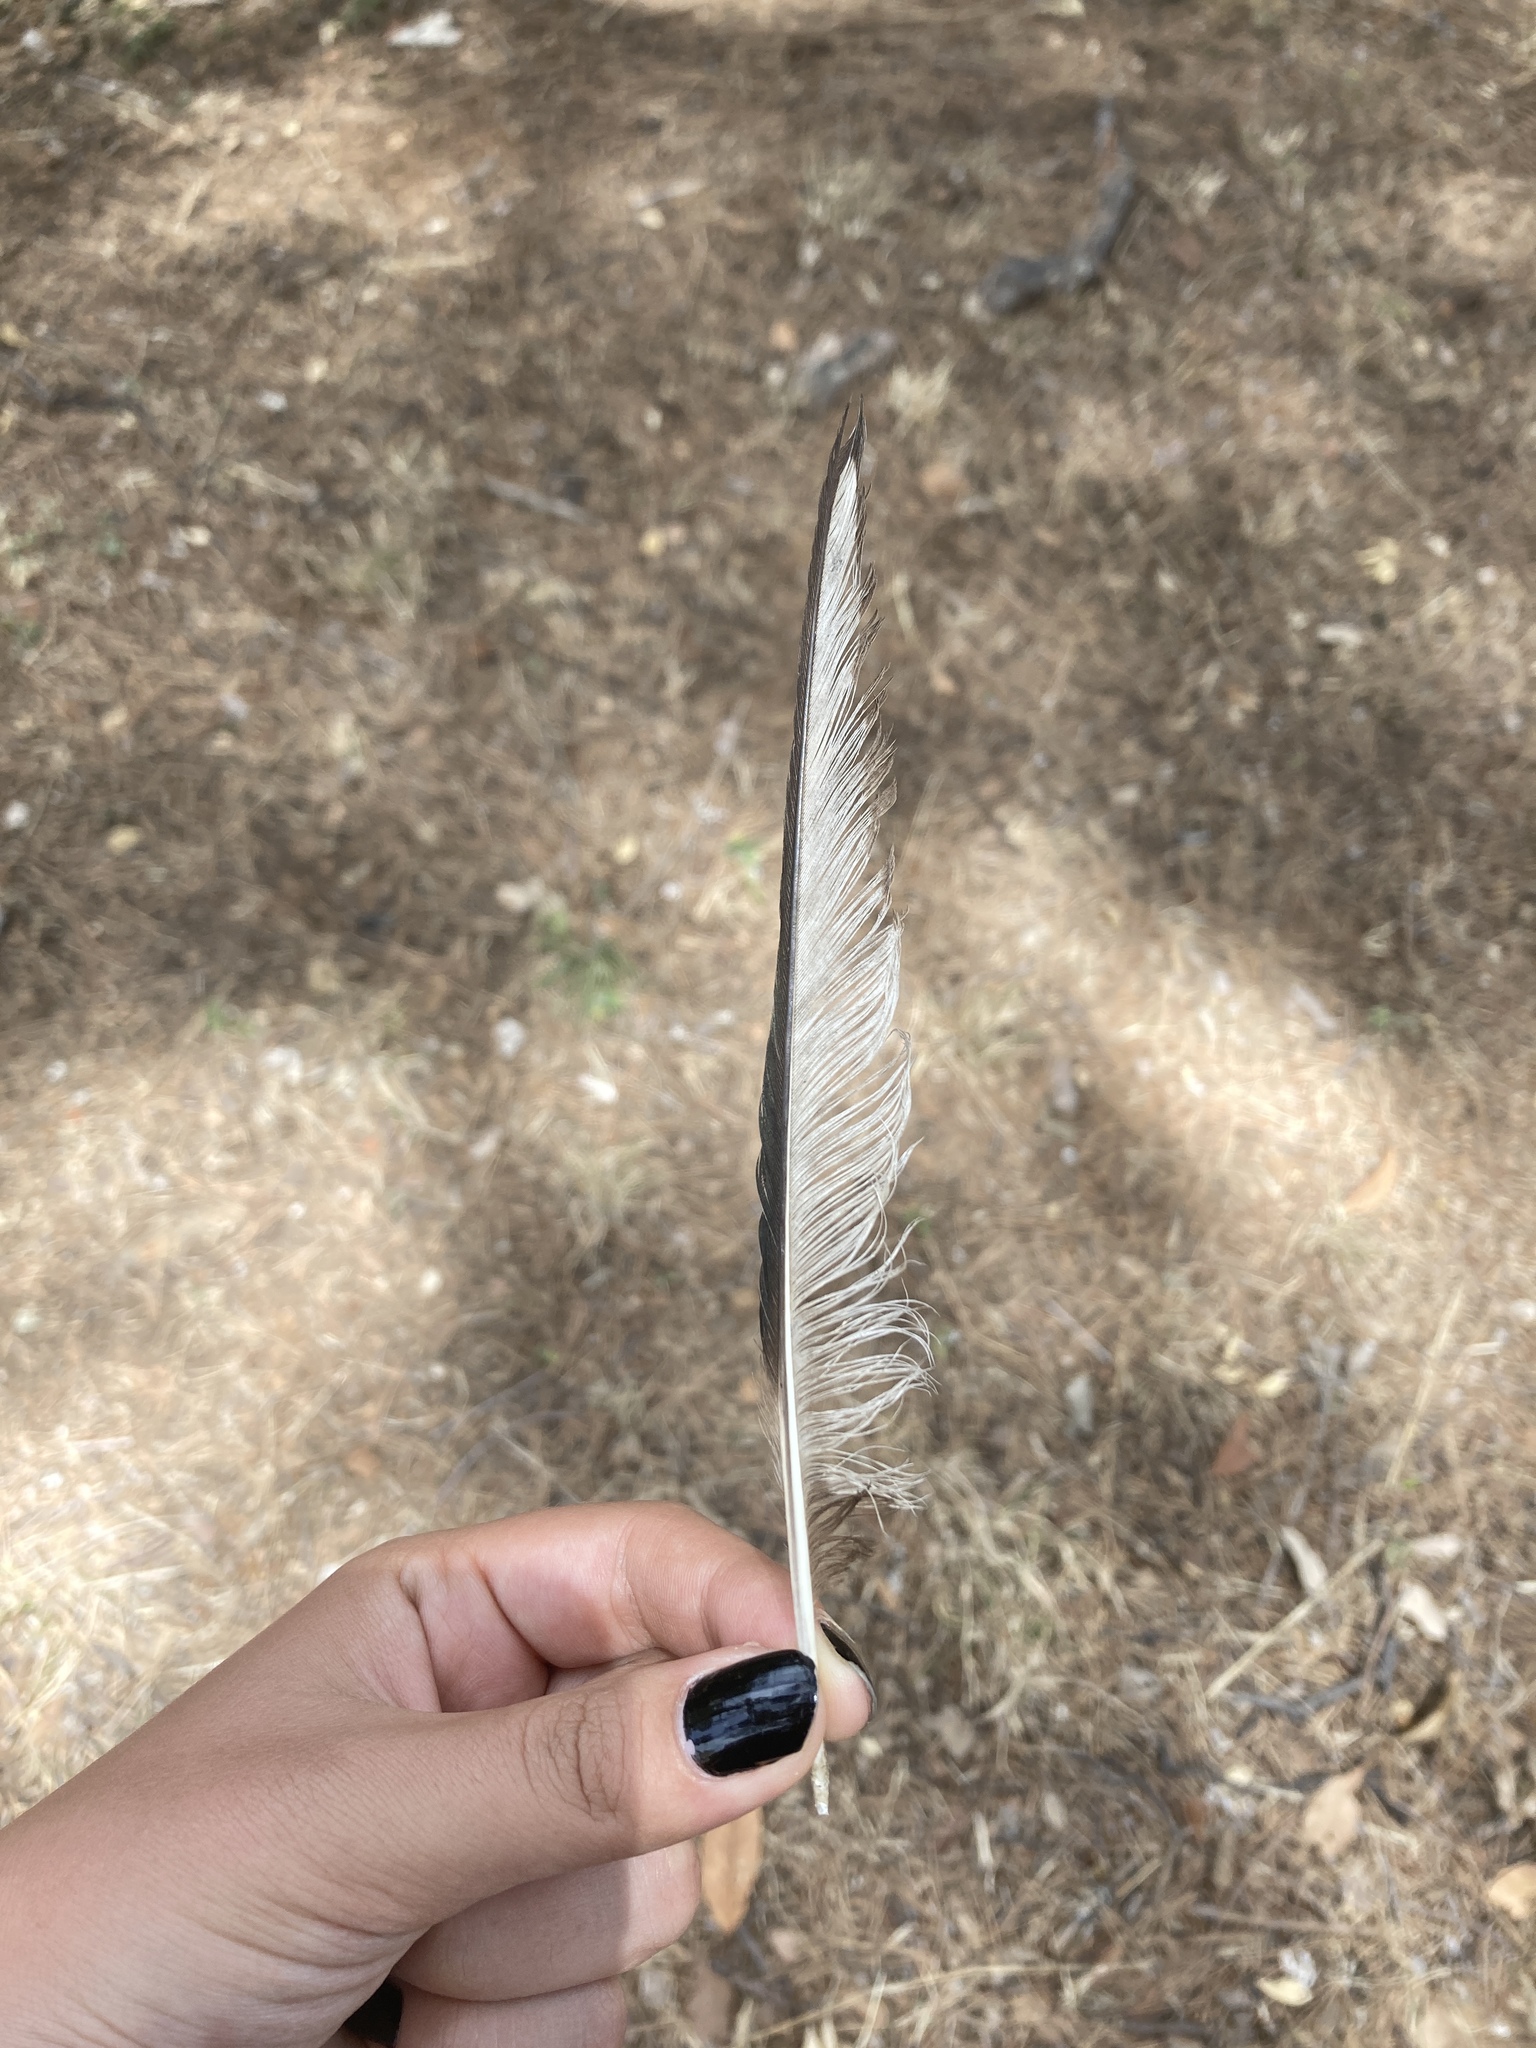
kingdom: Animalia
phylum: Chordata
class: Aves
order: Passeriformes
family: Corvidae
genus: Pica
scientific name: Pica pica
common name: Eurasian magpie
